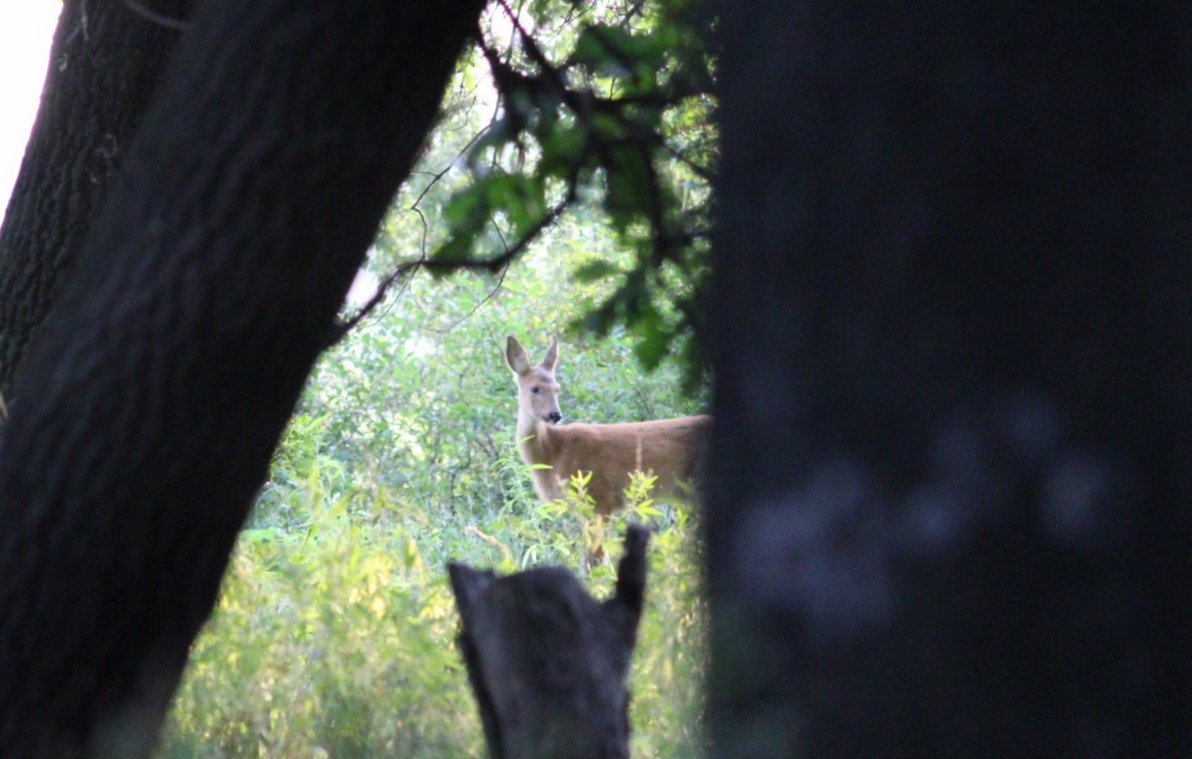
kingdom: Animalia
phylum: Chordata
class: Mammalia
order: Artiodactyla
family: Cervidae
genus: Capreolus
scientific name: Capreolus pygargus
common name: Siberian roe
